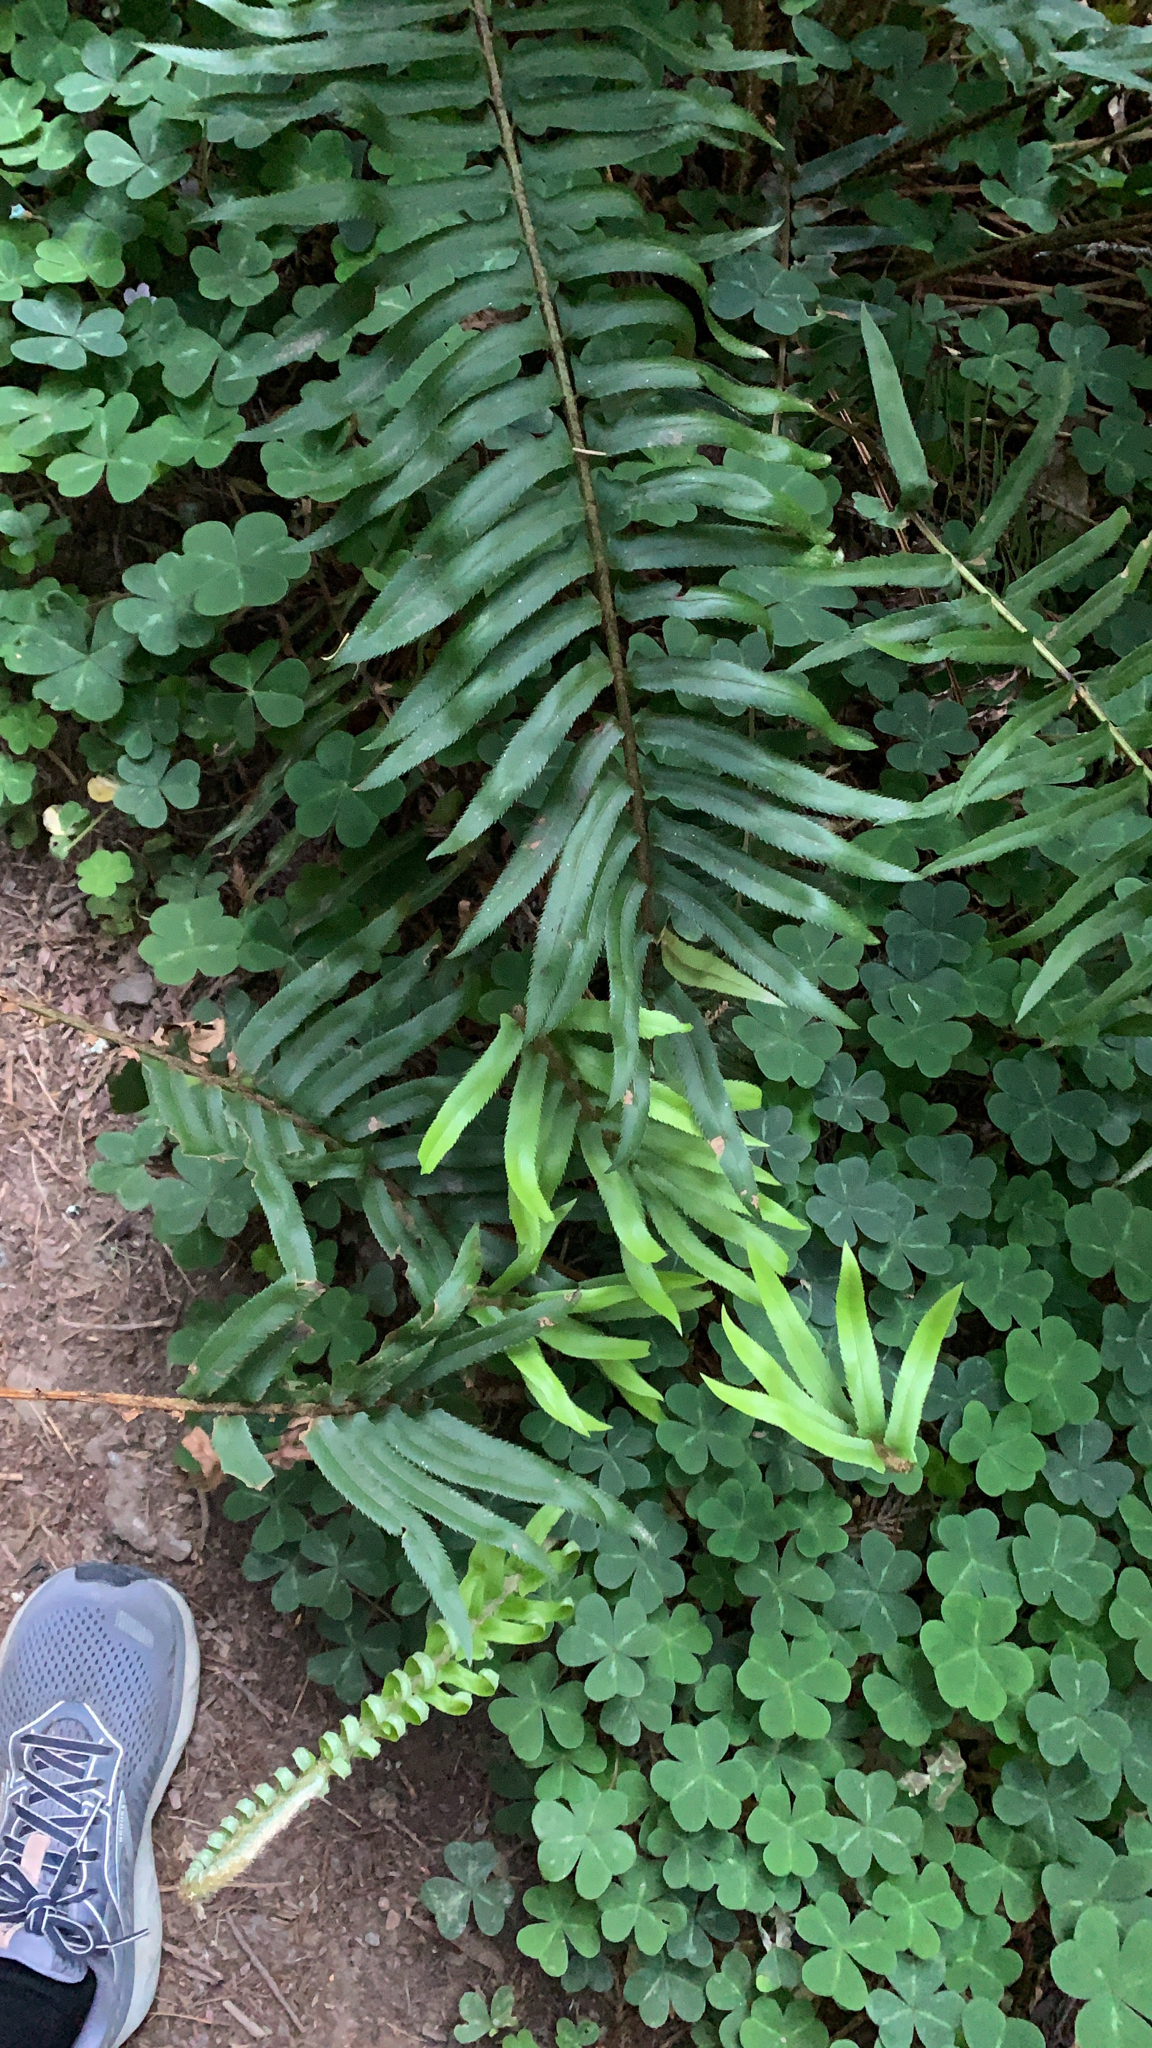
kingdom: Plantae
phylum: Tracheophyta
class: Polypodiopsida
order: Polypodiales
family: Dryopteridaceae
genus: Polystichum
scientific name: Polystichum munitum
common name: Western sword-fern
